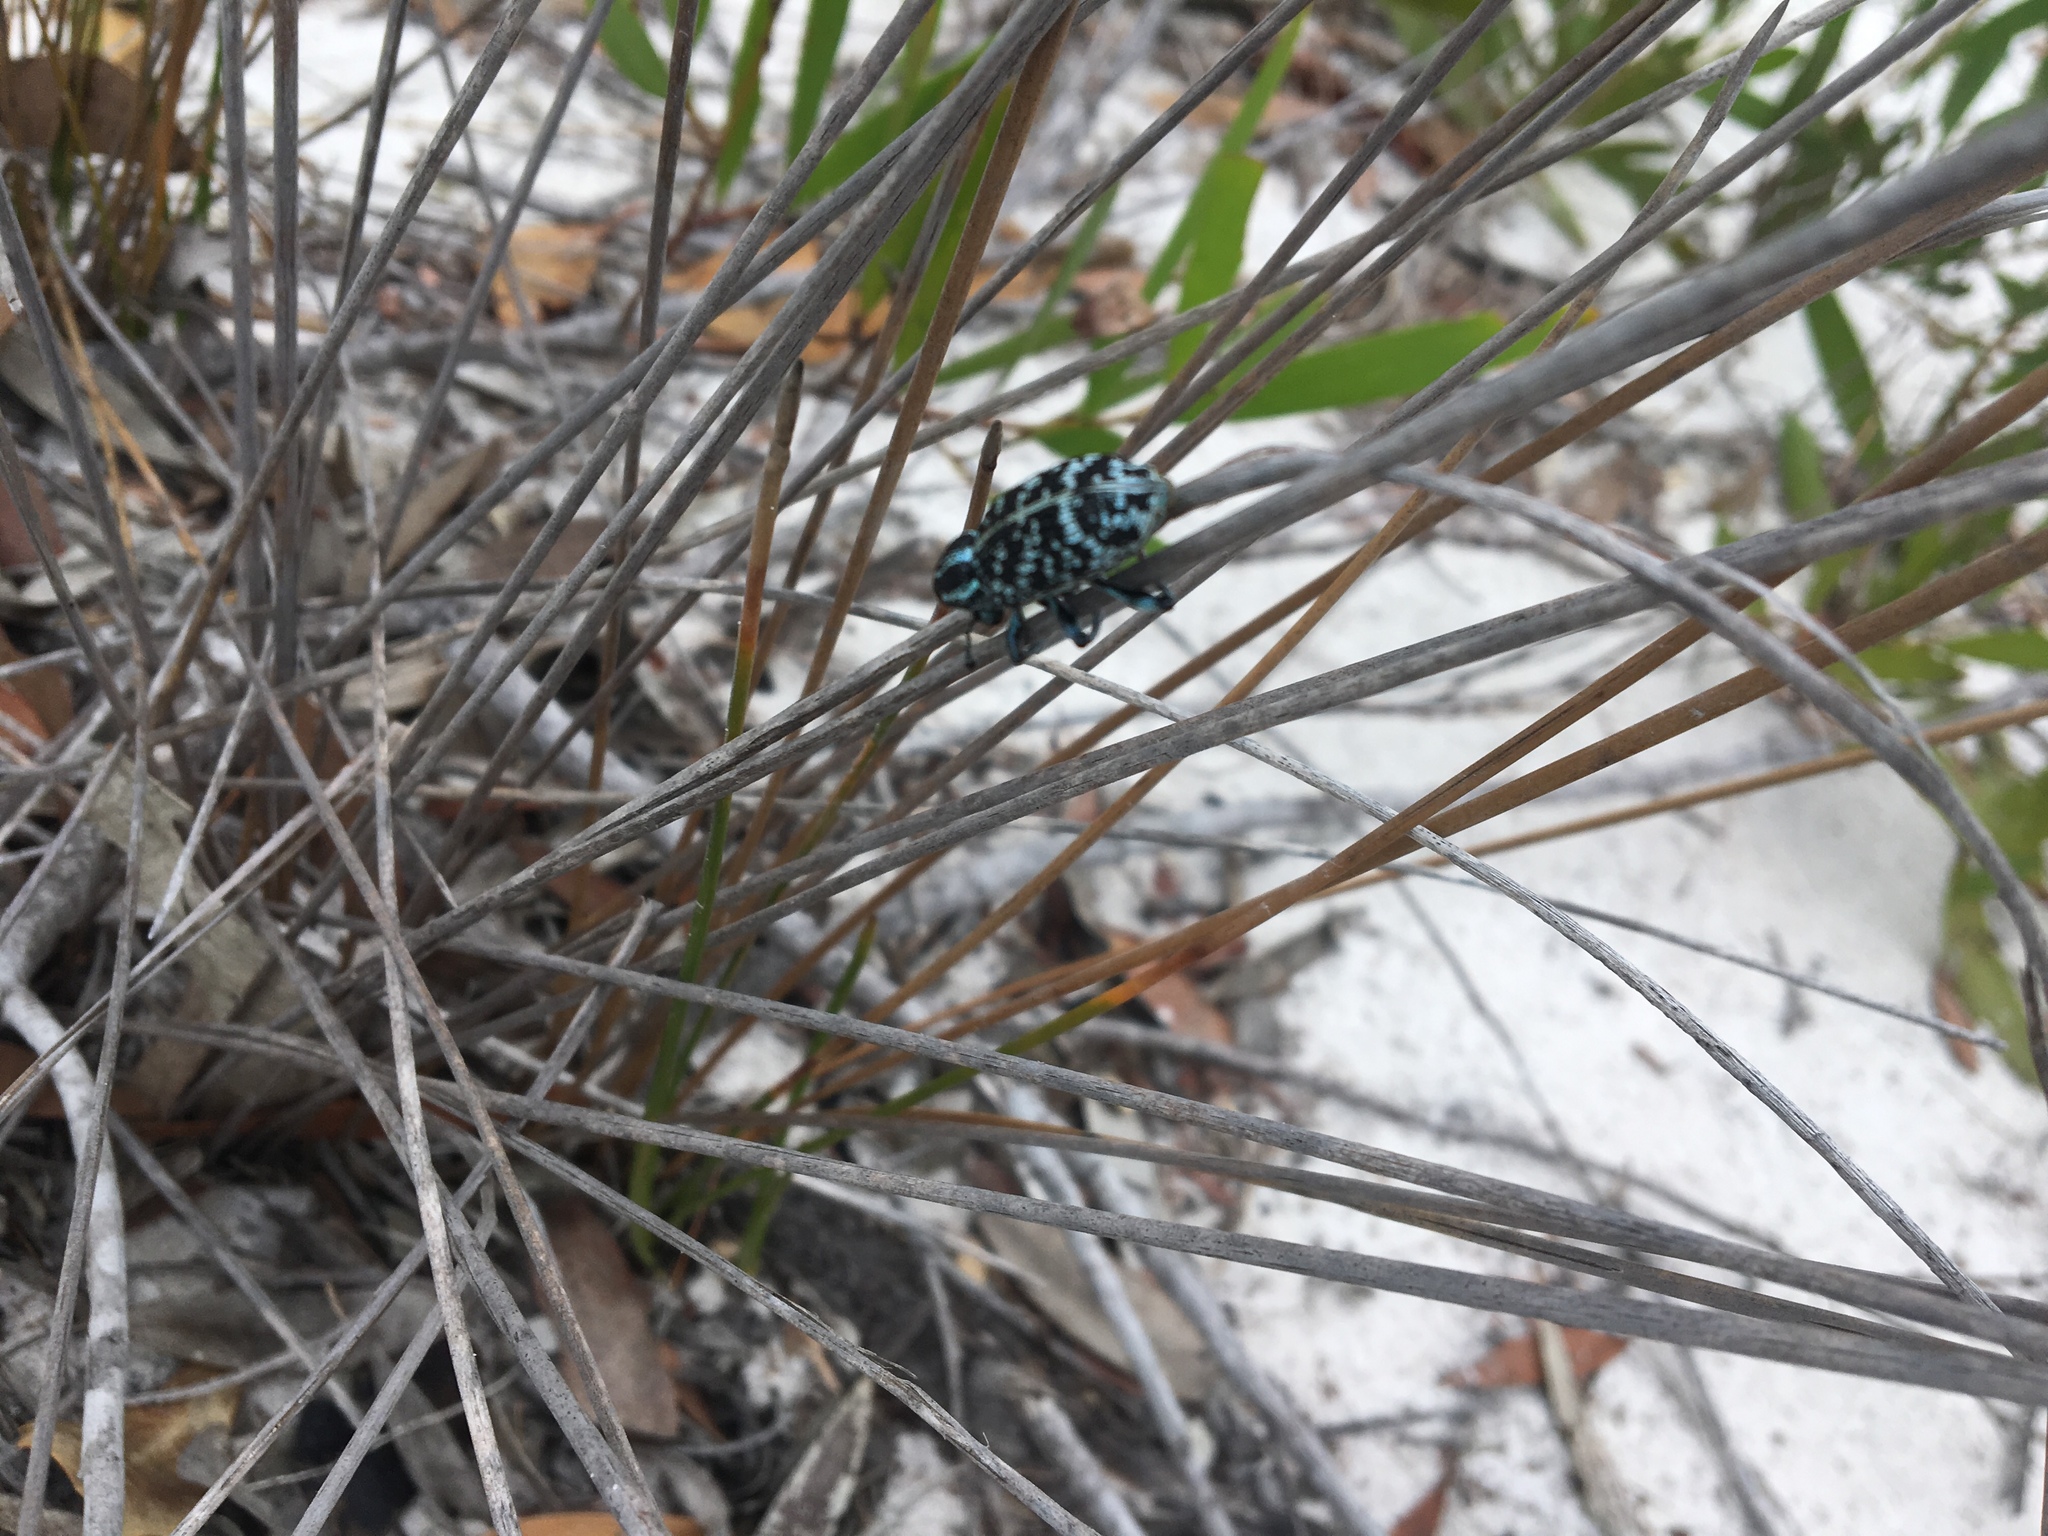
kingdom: Animalia
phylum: Arthropoda
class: Insecta
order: Coleoptera
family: Curculionidae
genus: Chrysolopus
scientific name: Chrysolopus spectabilis
